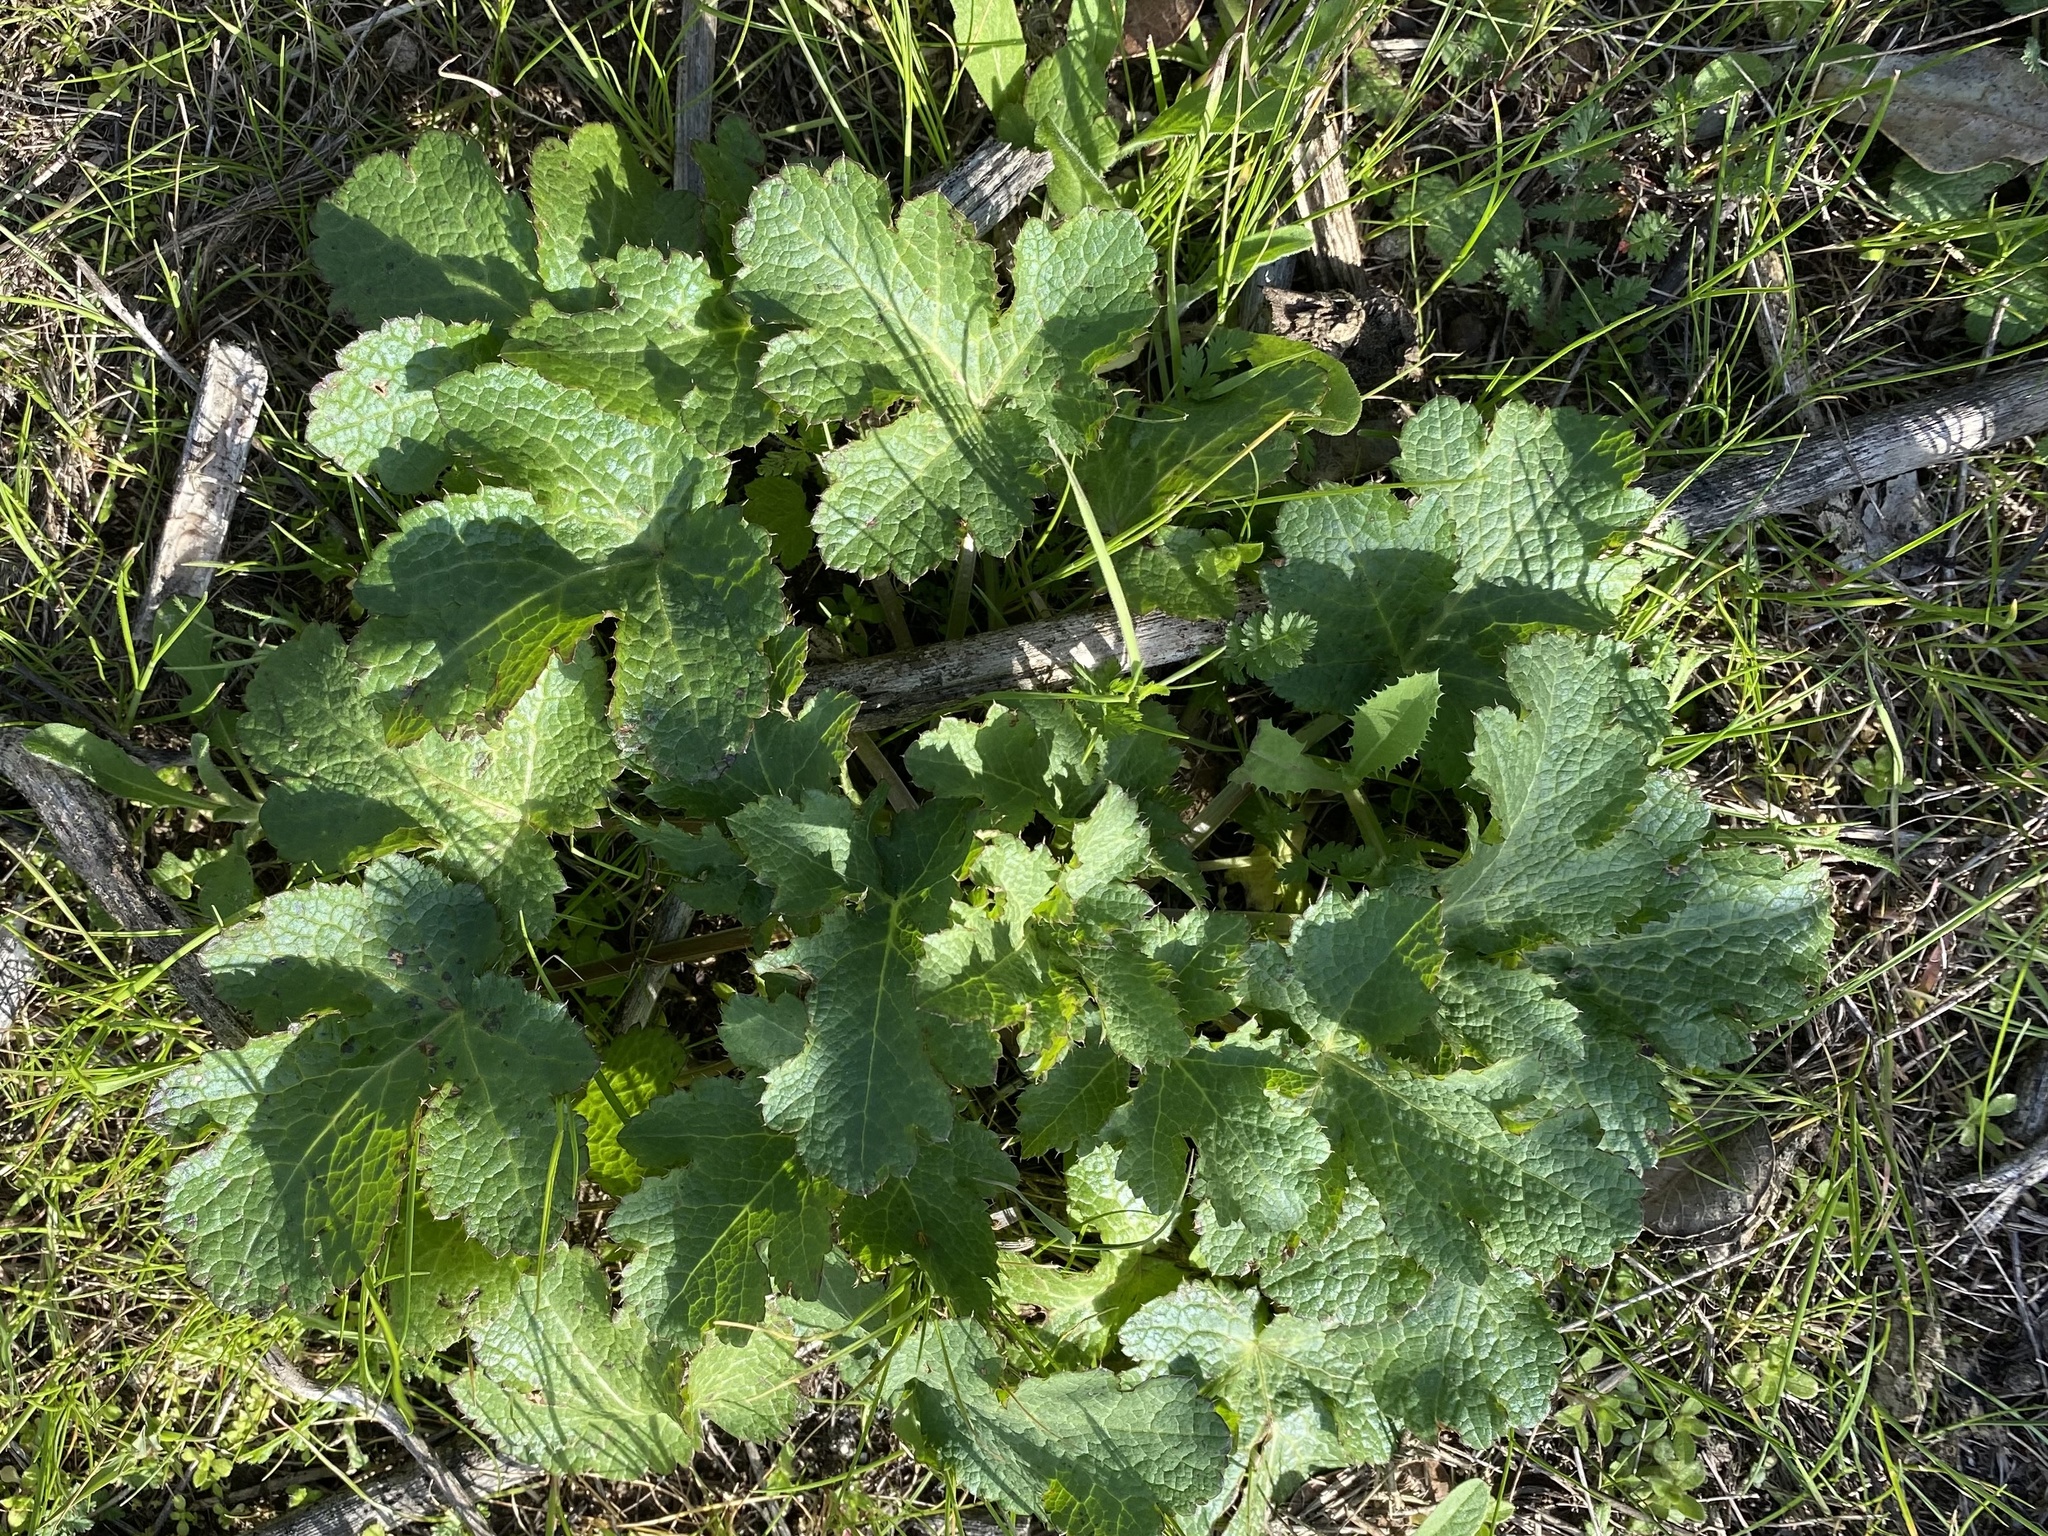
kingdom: Plantae
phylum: Tracheophyta
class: Magnoliopsida
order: Apiales
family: Apiaceae
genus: Sanicula
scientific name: Sanicula crassicaulis
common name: Western snakeroot
